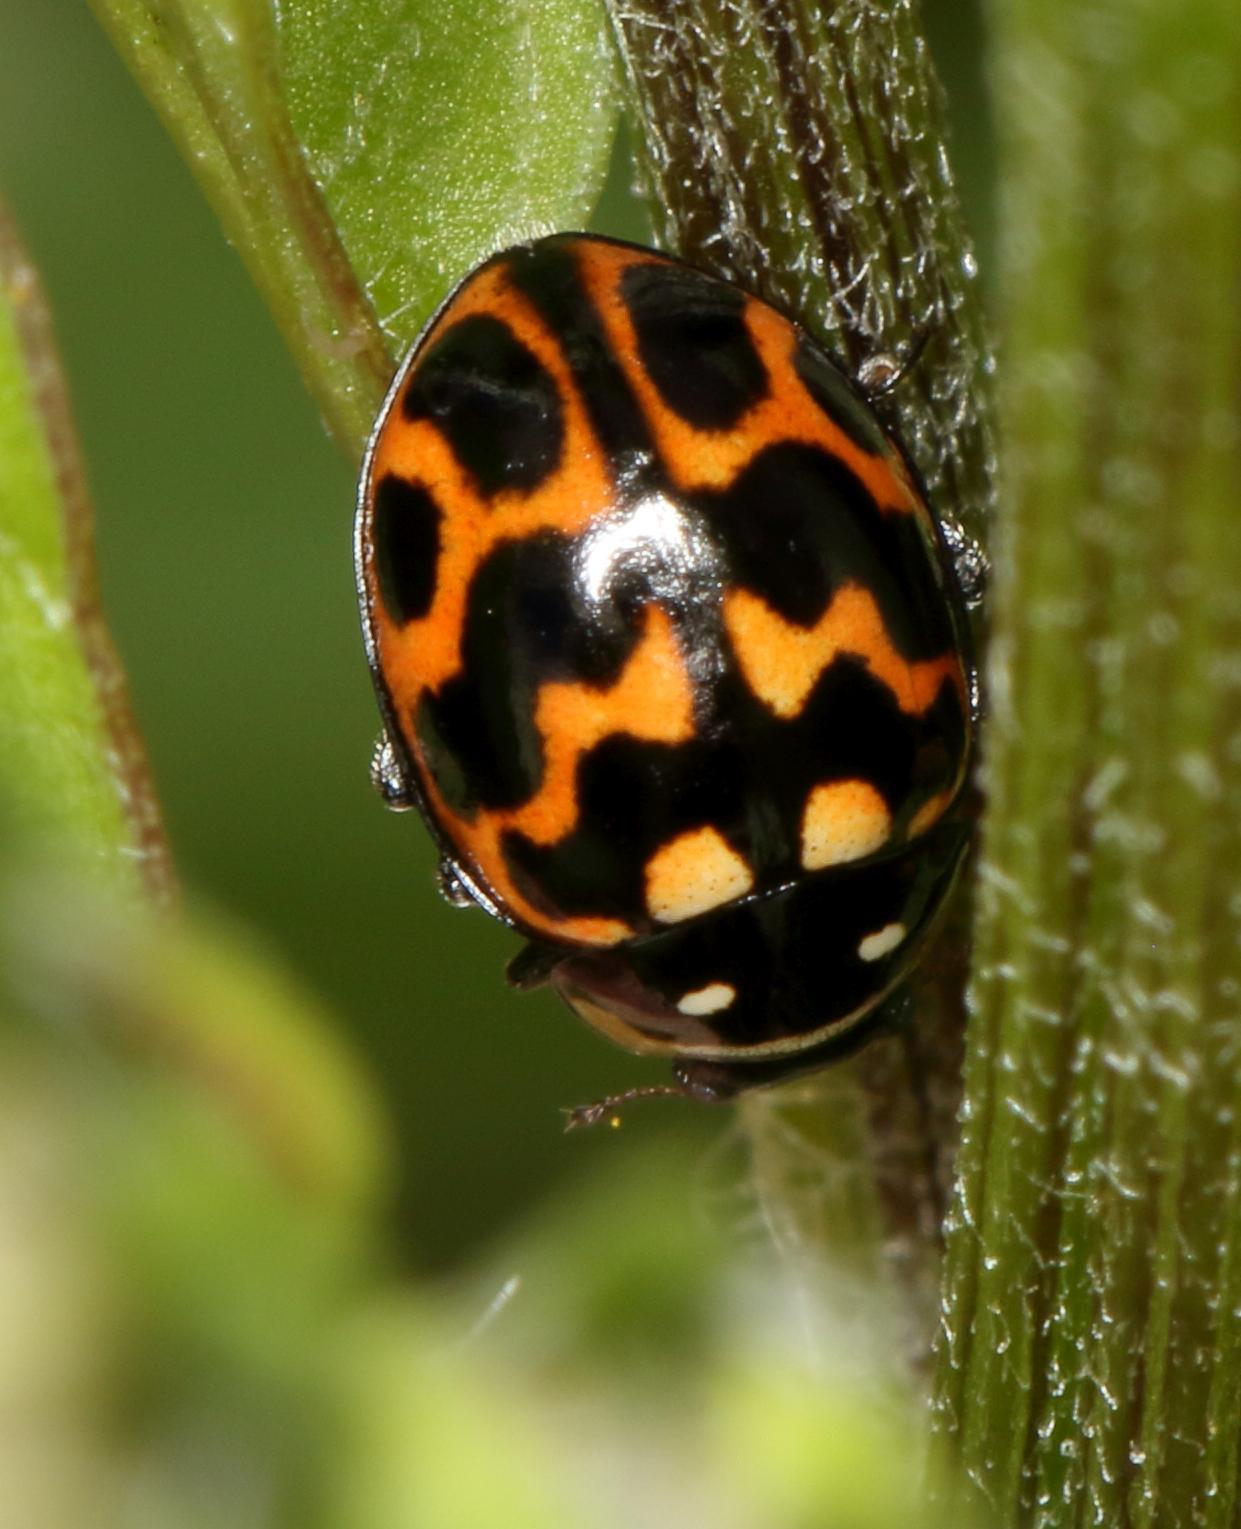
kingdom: Animalia
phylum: Arthropoda
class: Insecta
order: Coleoptera
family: Coccinellidae
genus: Lioadalia
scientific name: Lioadalia flavomaculata
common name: Ladybird beetle
